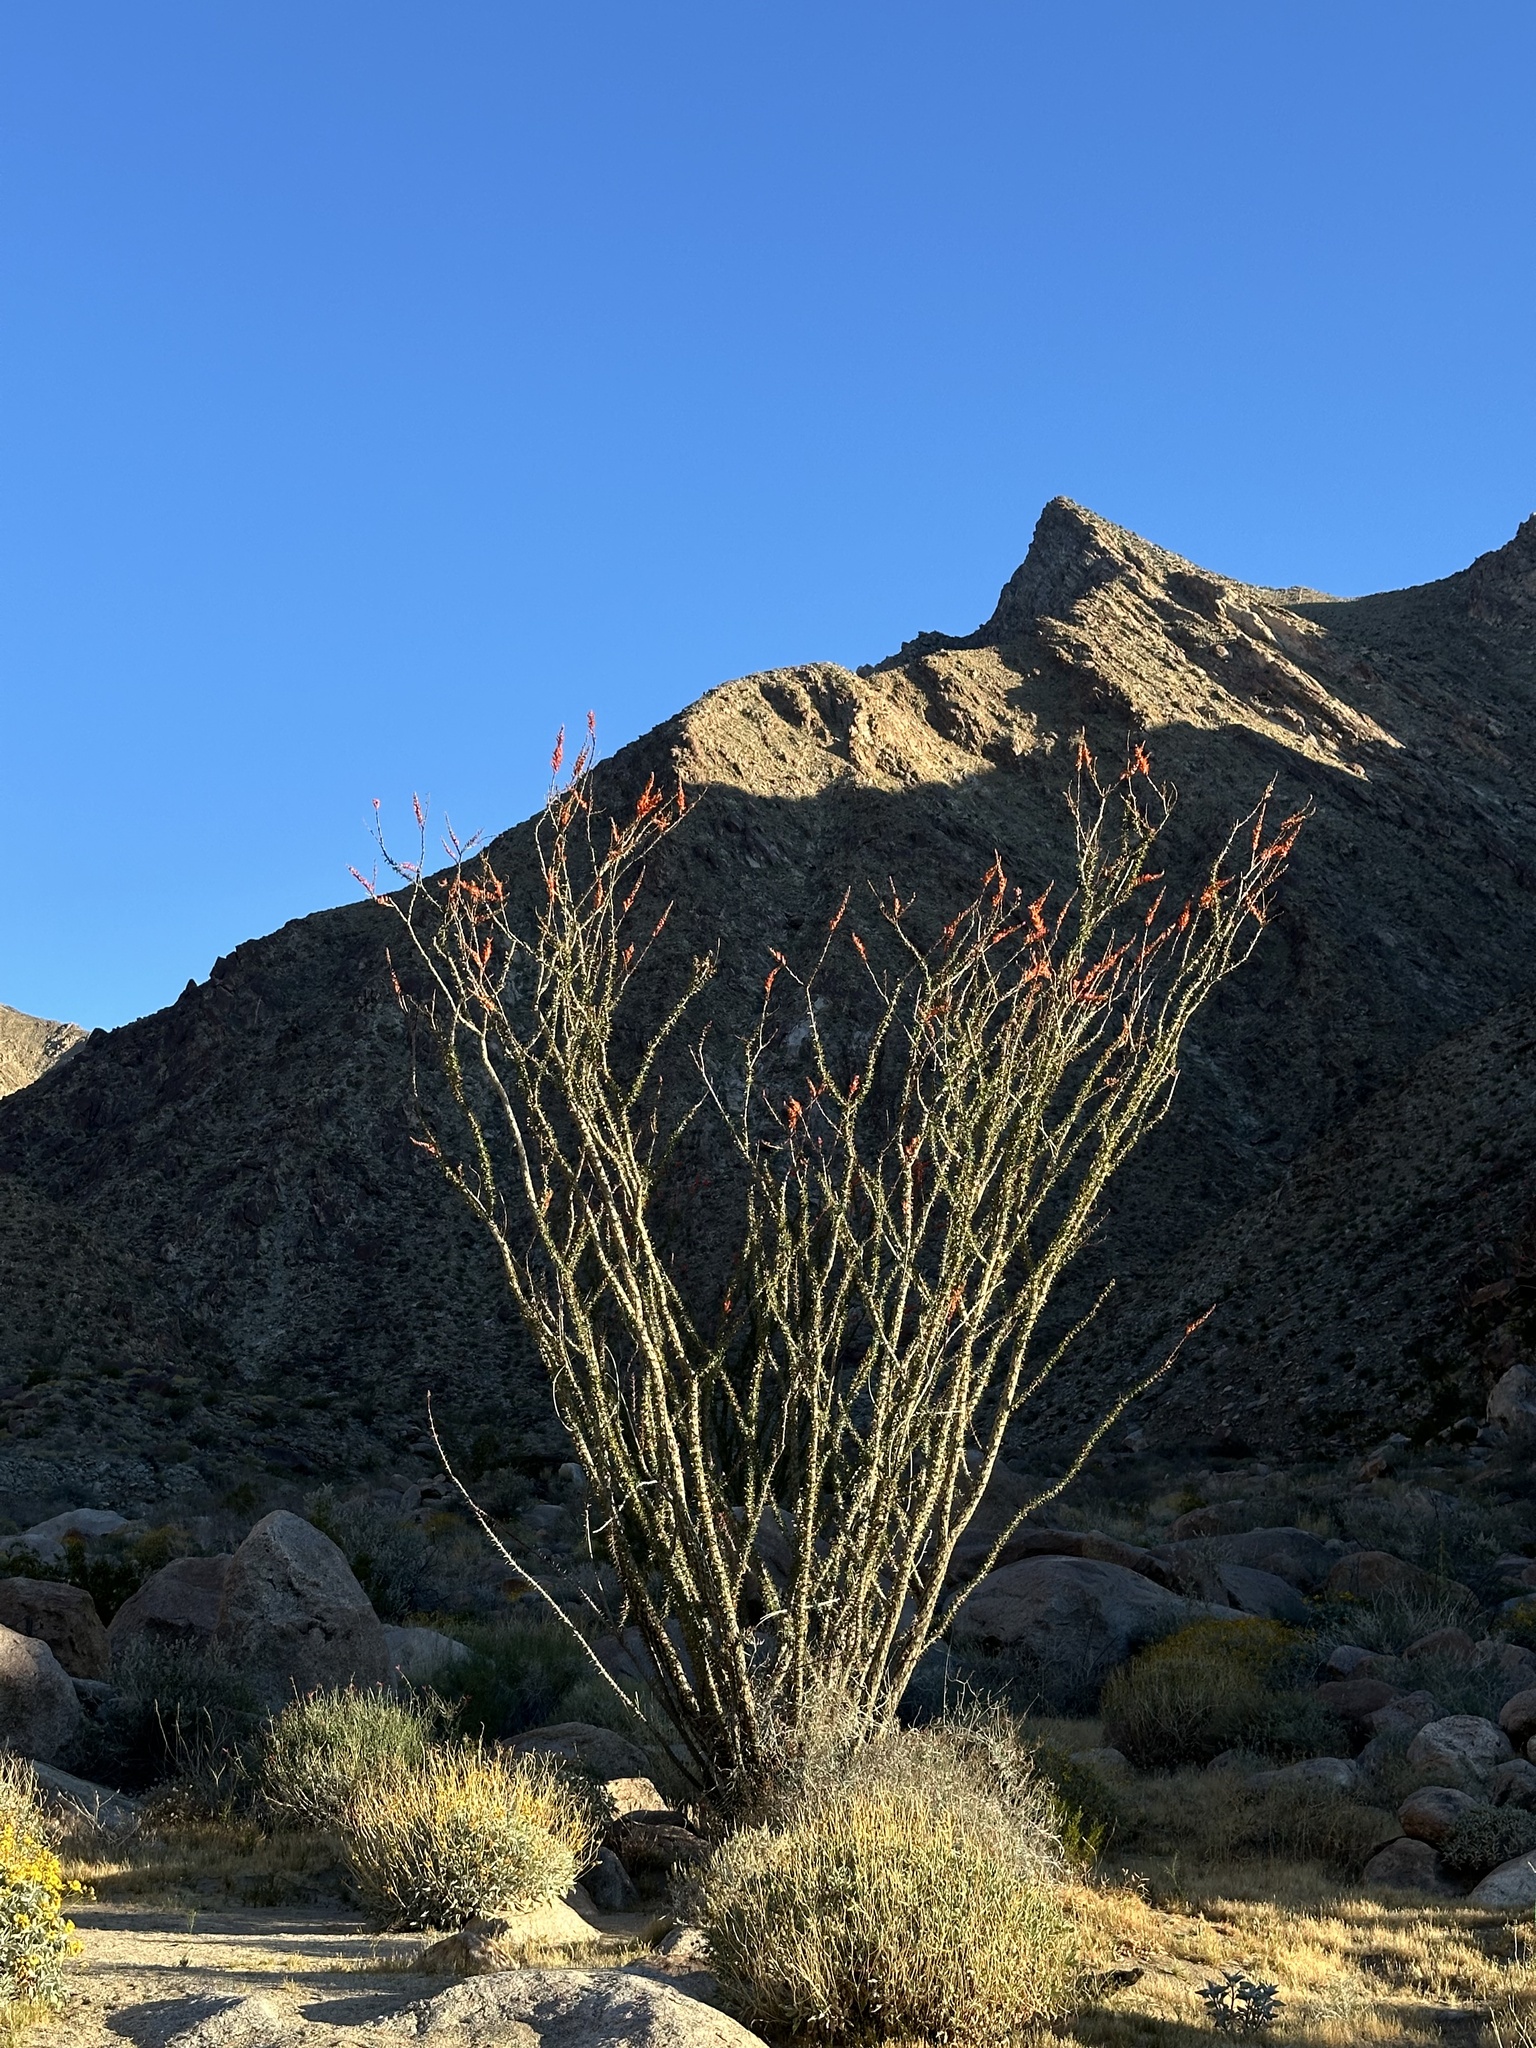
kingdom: Plantae
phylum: Tracheophyta
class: Magnoliopsida
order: Ericales
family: Fouquieriaceae
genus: Fouquieria
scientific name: Fouquieria splendens
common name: Vine-cactus
